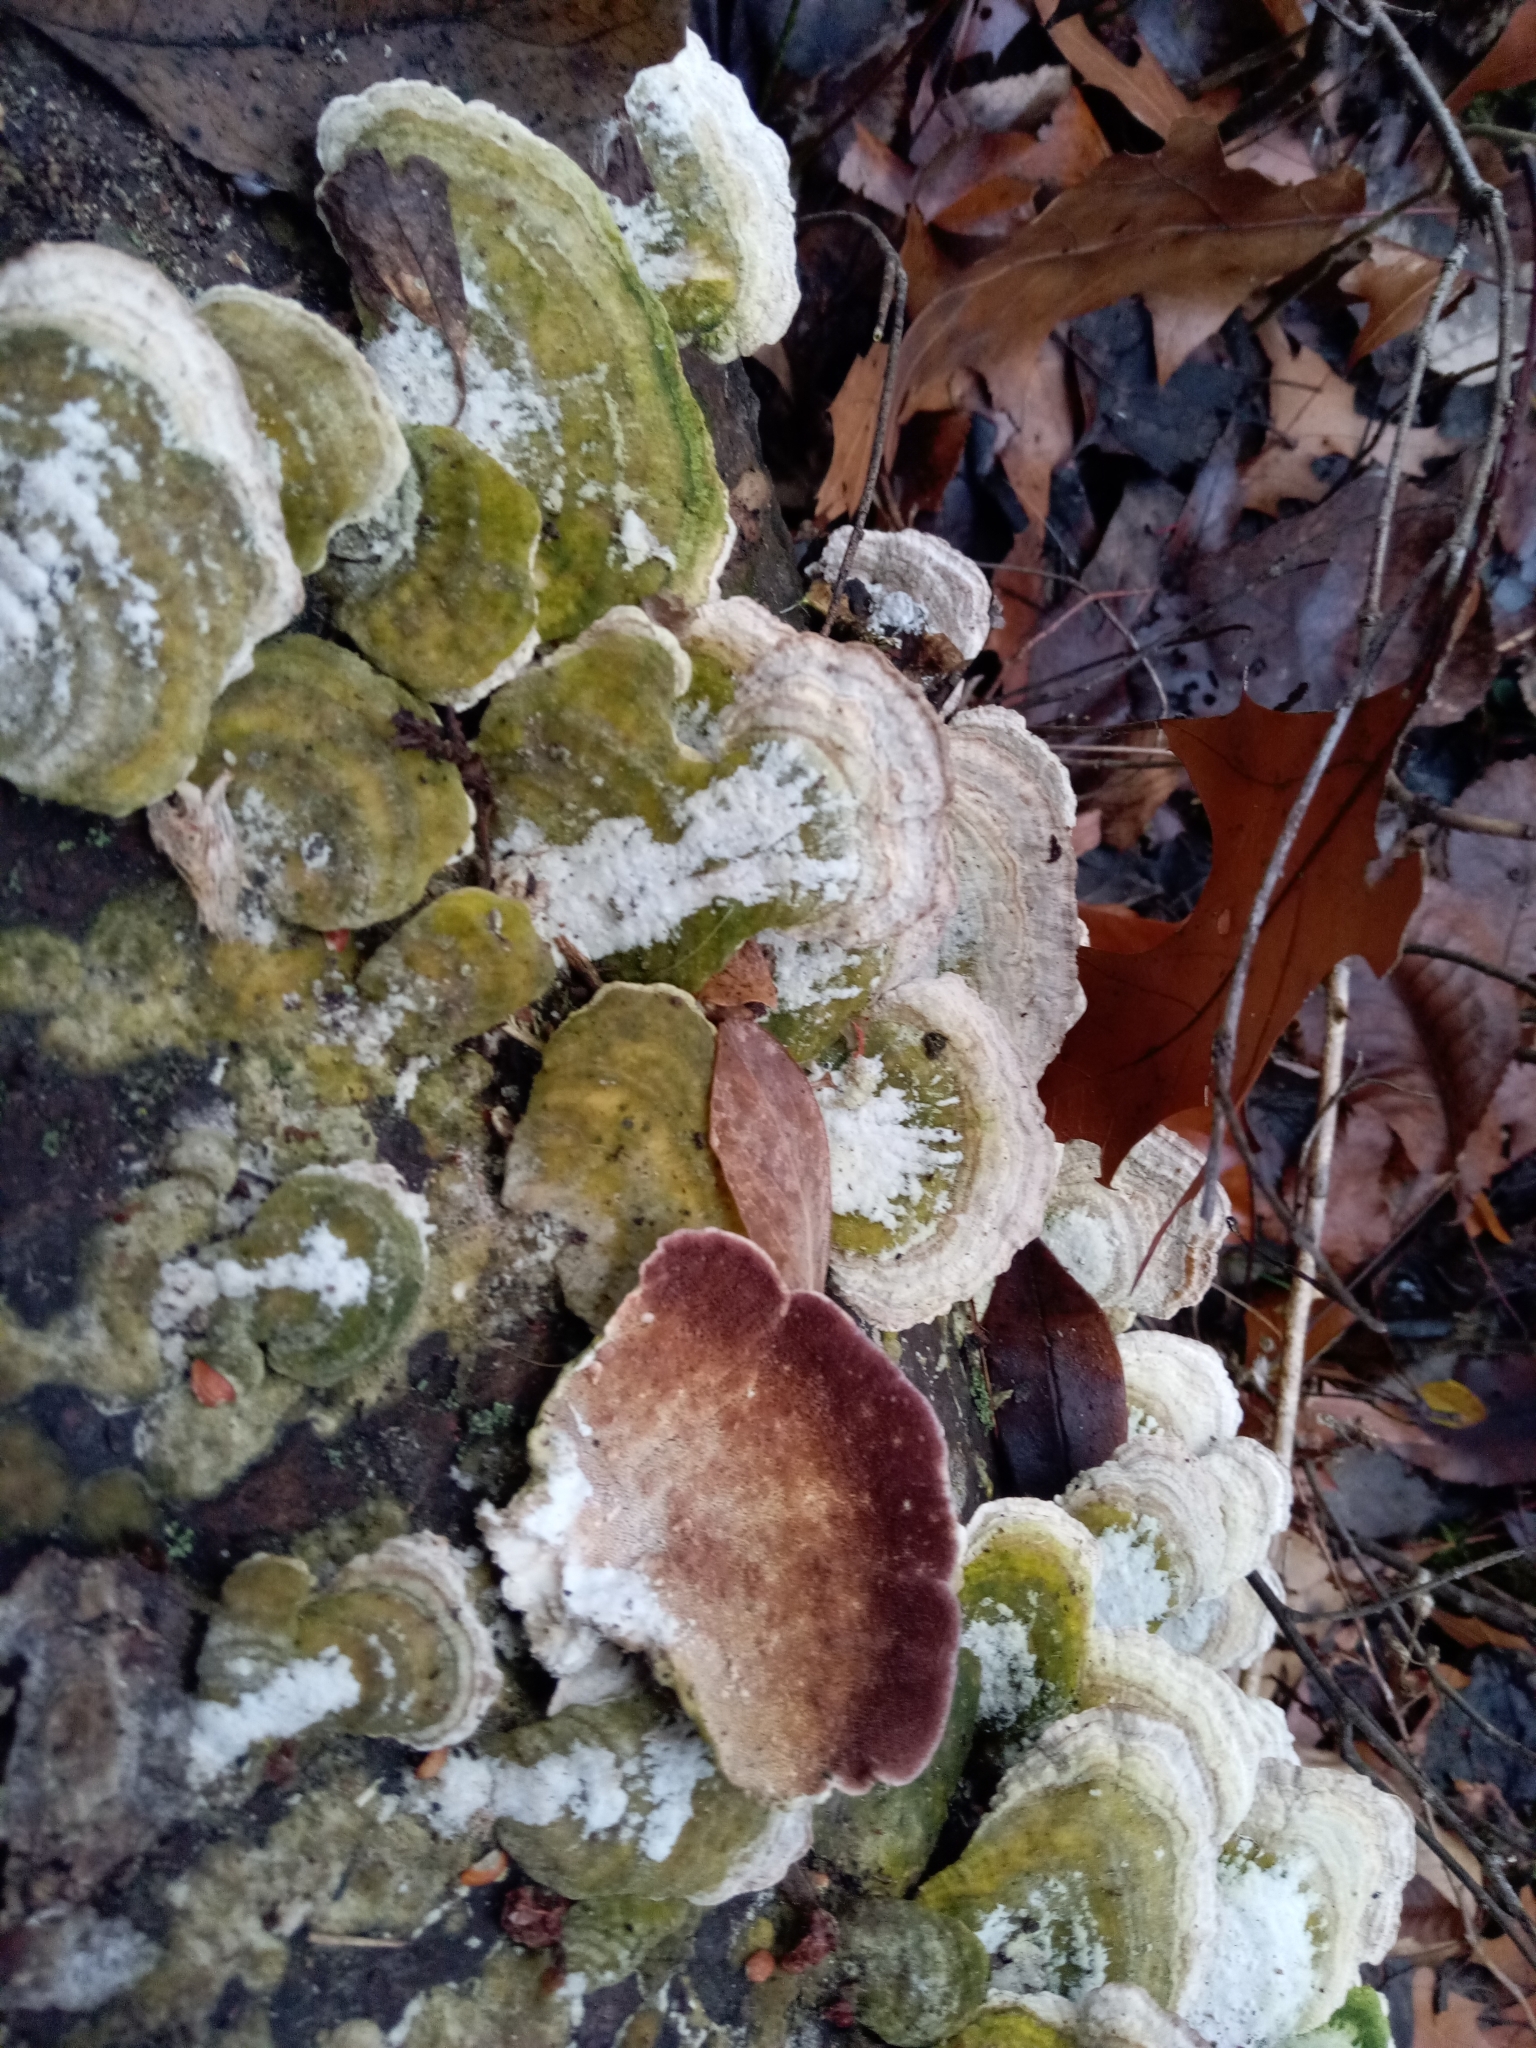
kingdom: Fungi
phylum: Basidiomycota
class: Agaricomycetes
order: Hymenochaetales
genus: Trichaptum
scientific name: Trichaptum subchartaceum
